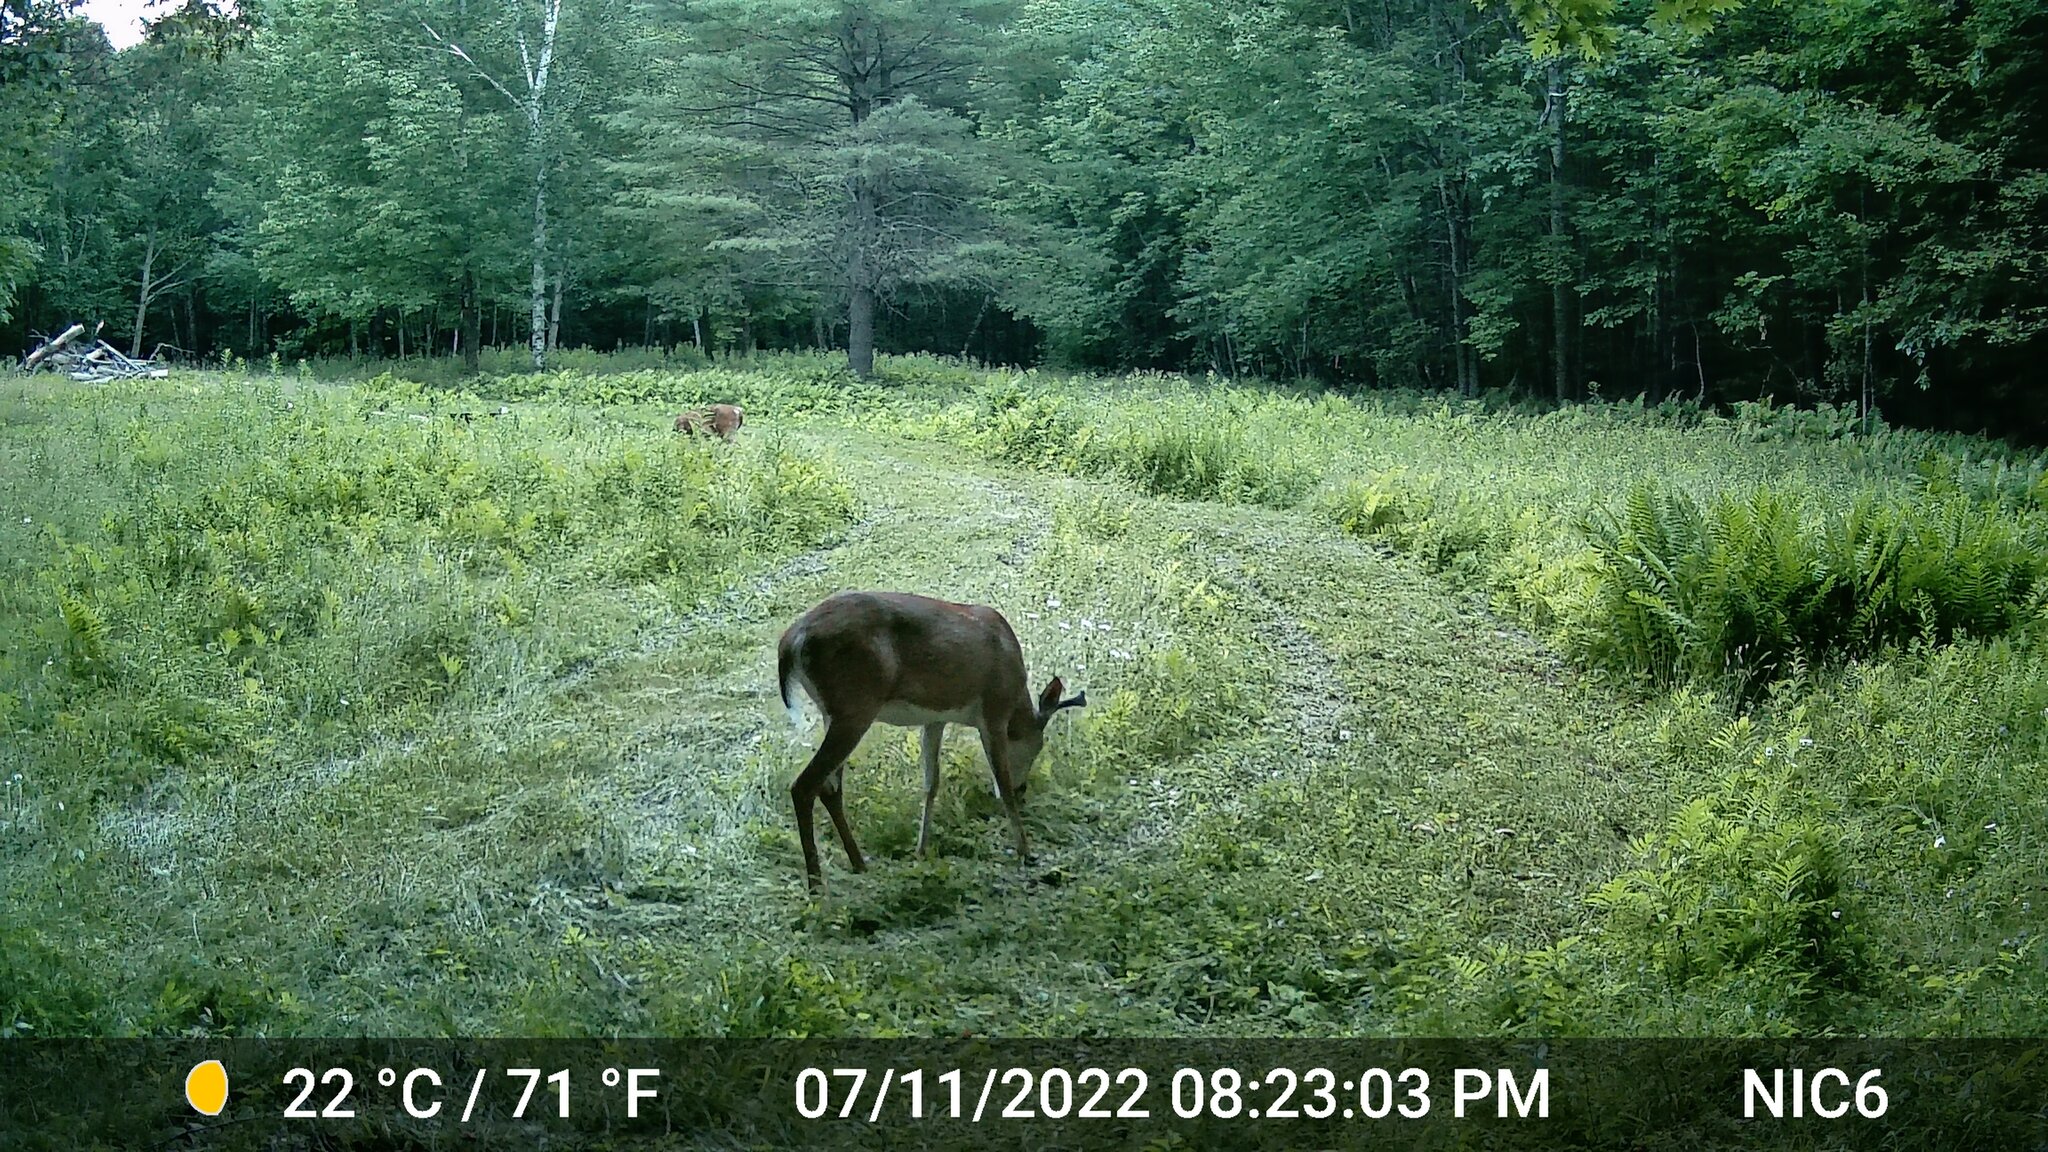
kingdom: Animalia
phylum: Chordata
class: Mammalia
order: Artiodactyla
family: Cervidae
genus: Odocoileus
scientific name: Odocoileus virginianus
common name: White-tailed deer
